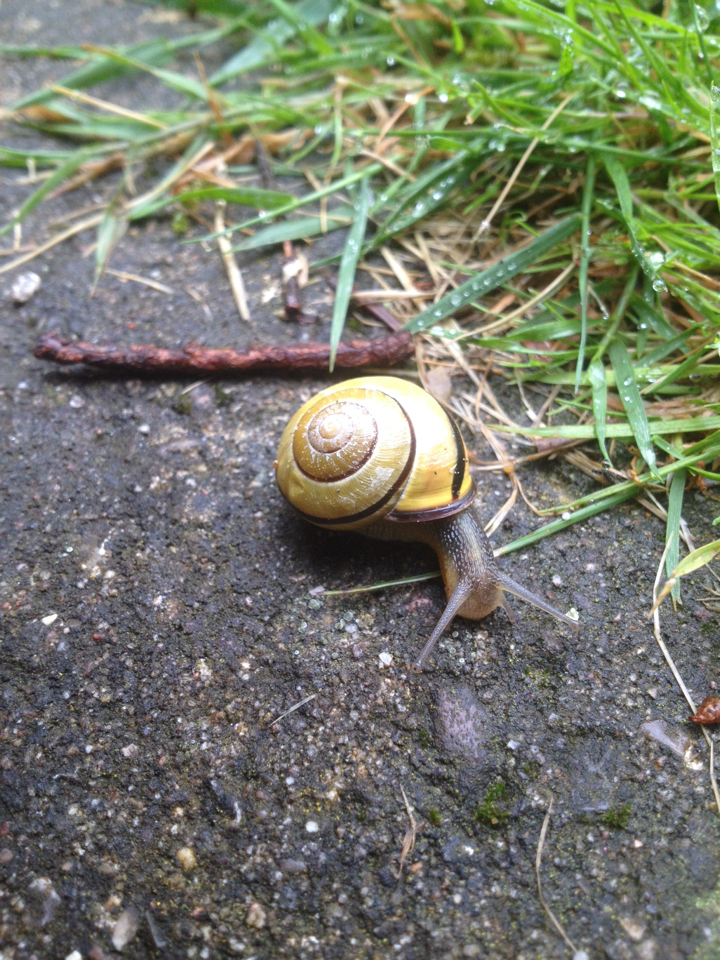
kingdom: Animalia
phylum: Mollusca
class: Gastropoda
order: Stylommatophora
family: Helicidae
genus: Cepaea
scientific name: Cepaea nemoralis
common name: Grovesnail
